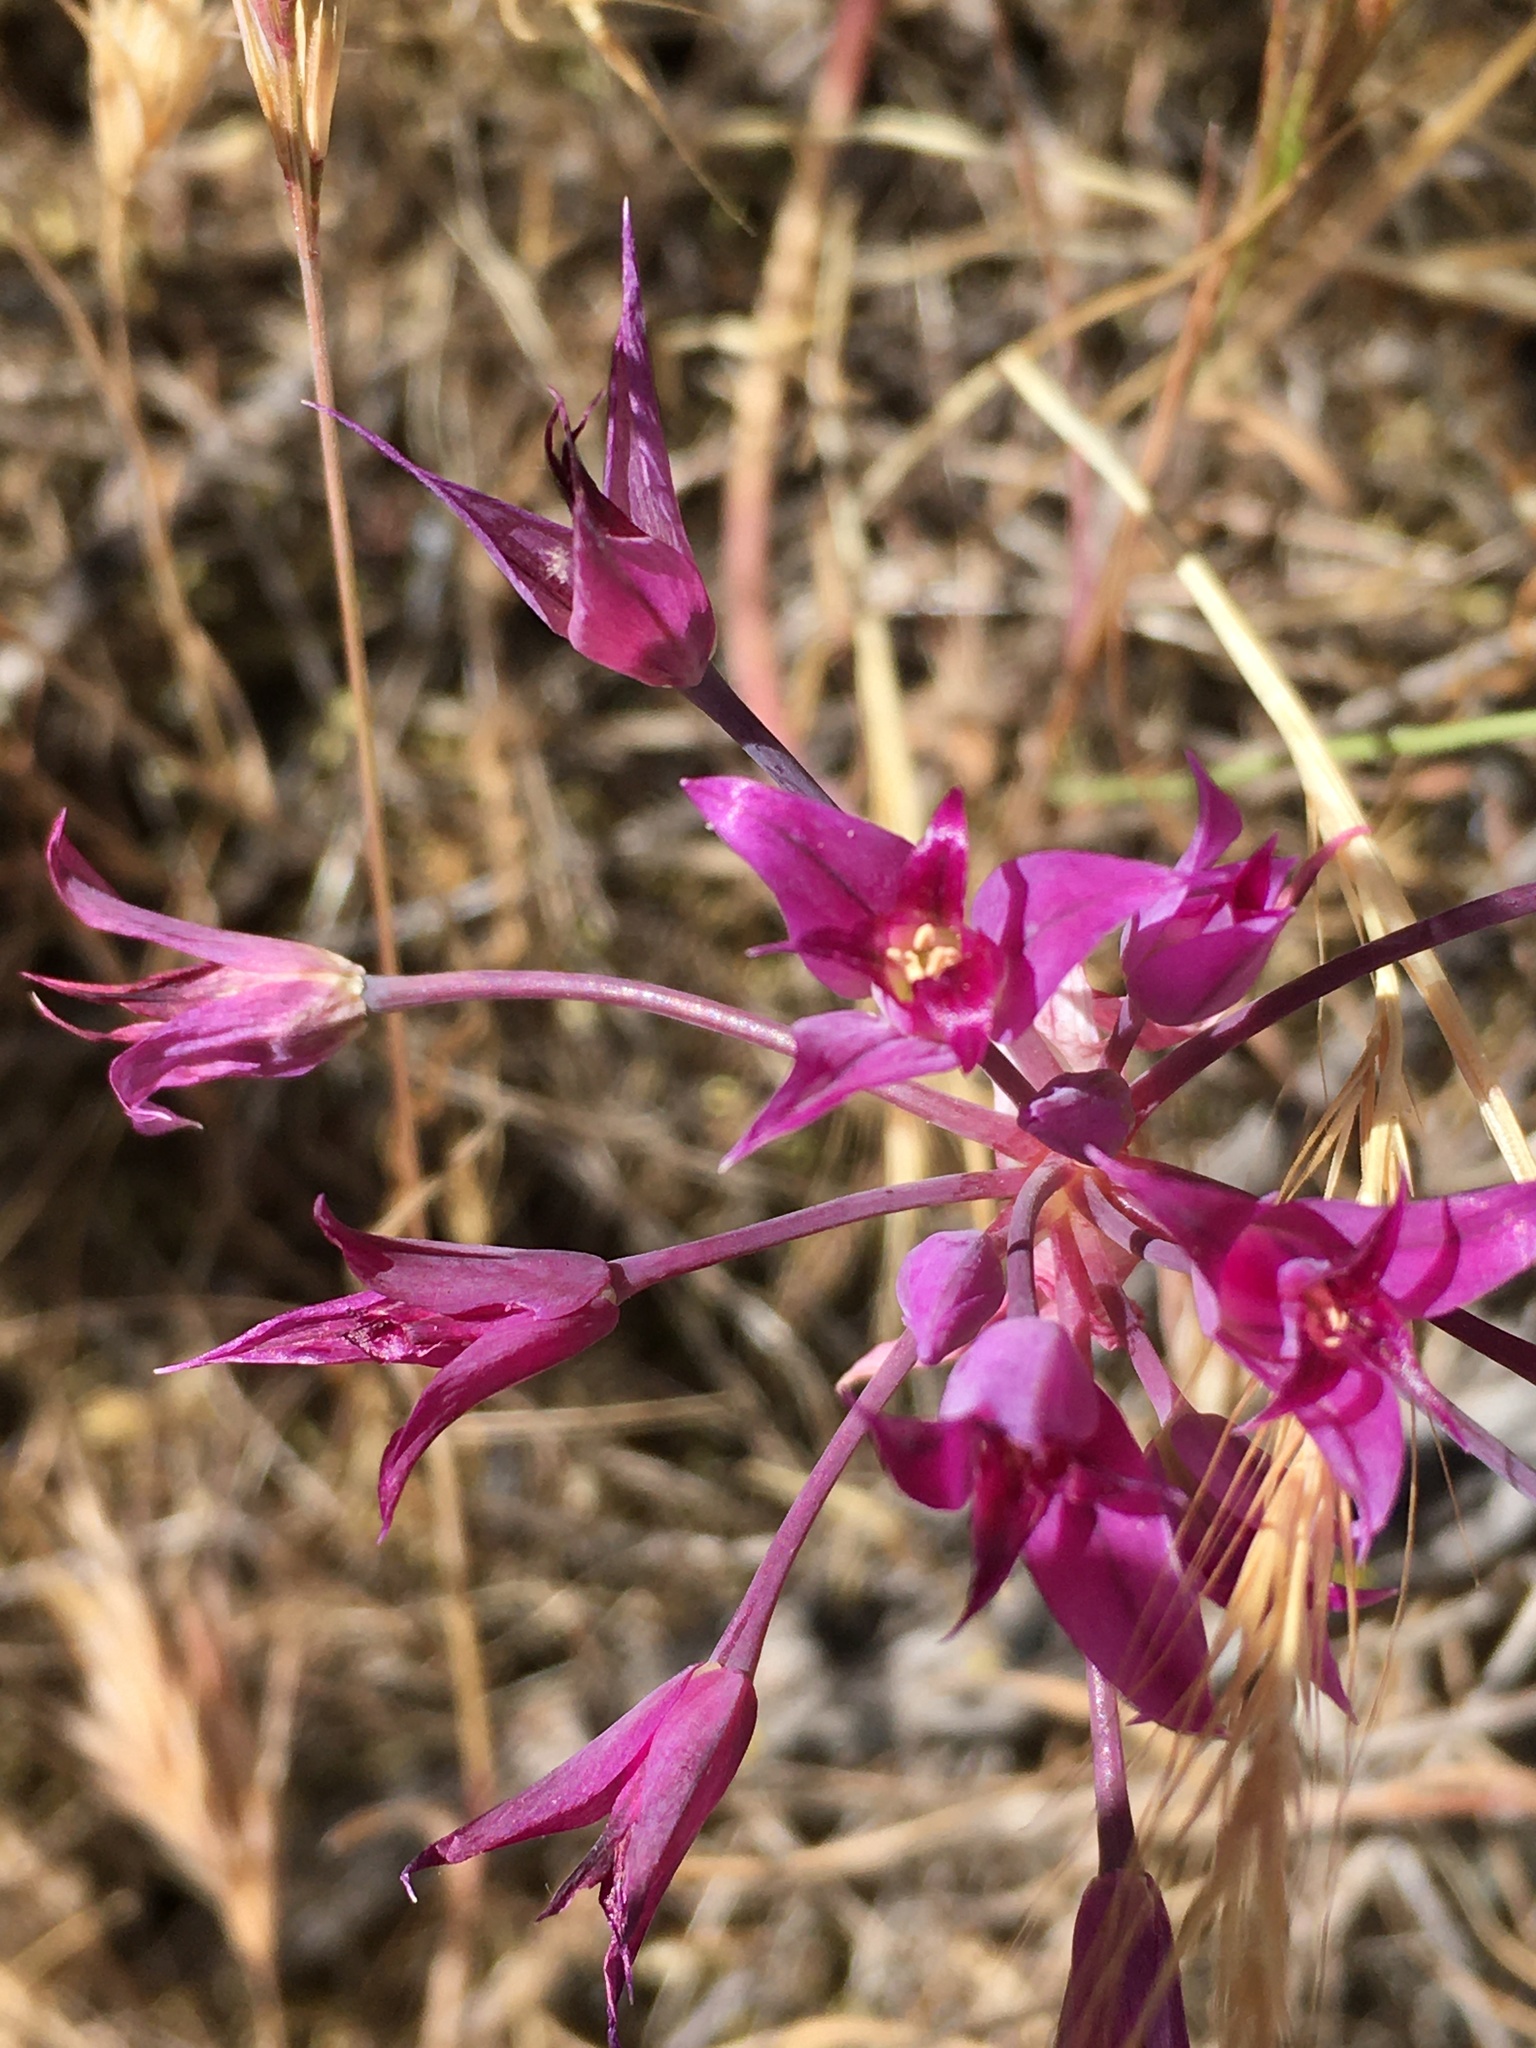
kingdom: Plantae
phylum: Tracheophyta
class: Liliopsida
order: Asparagales
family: Amaryllidaceae
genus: Allium
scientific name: Allium peninsulare
